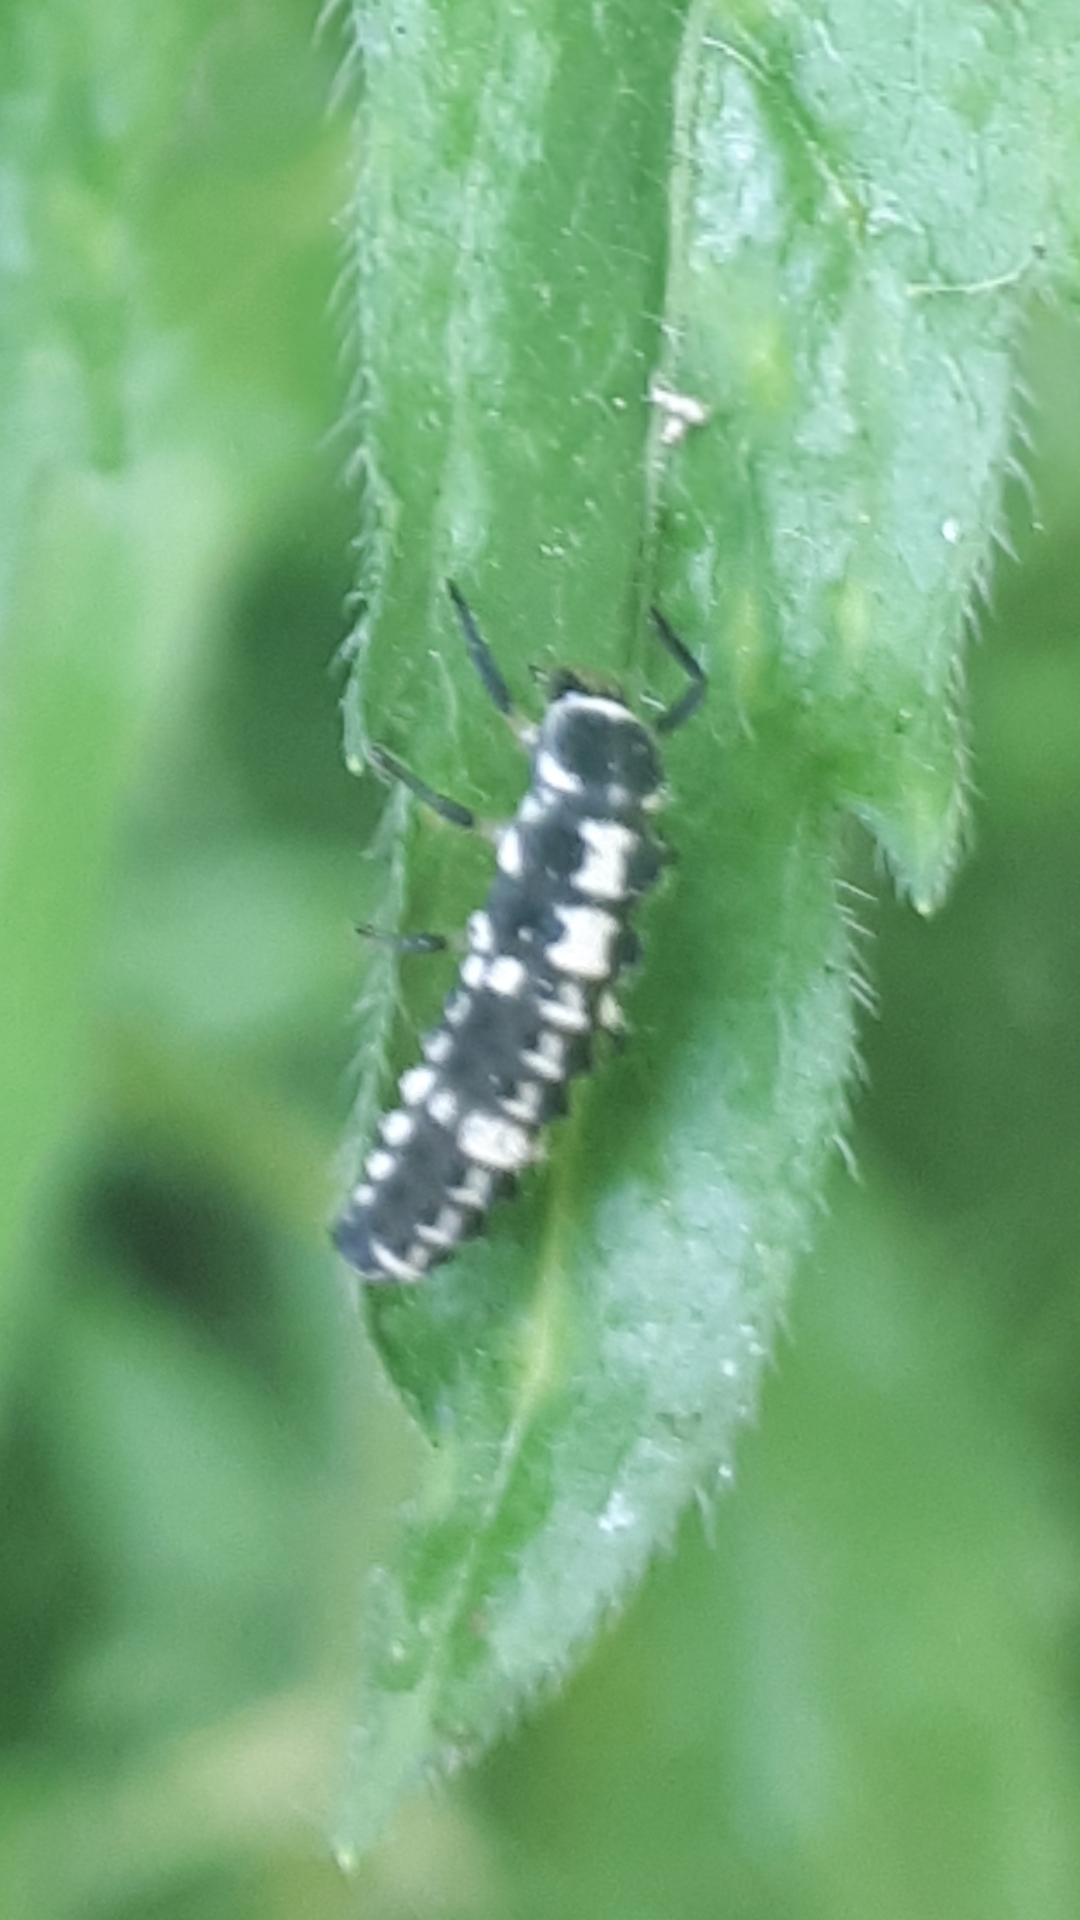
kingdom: Animalia
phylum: Arthropoda
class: Insecta
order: Coleoptera
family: Coccinellidae
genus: Propylaea
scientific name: Propylaea quatuordecimpunctata
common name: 14-spotted ladybird beetle
